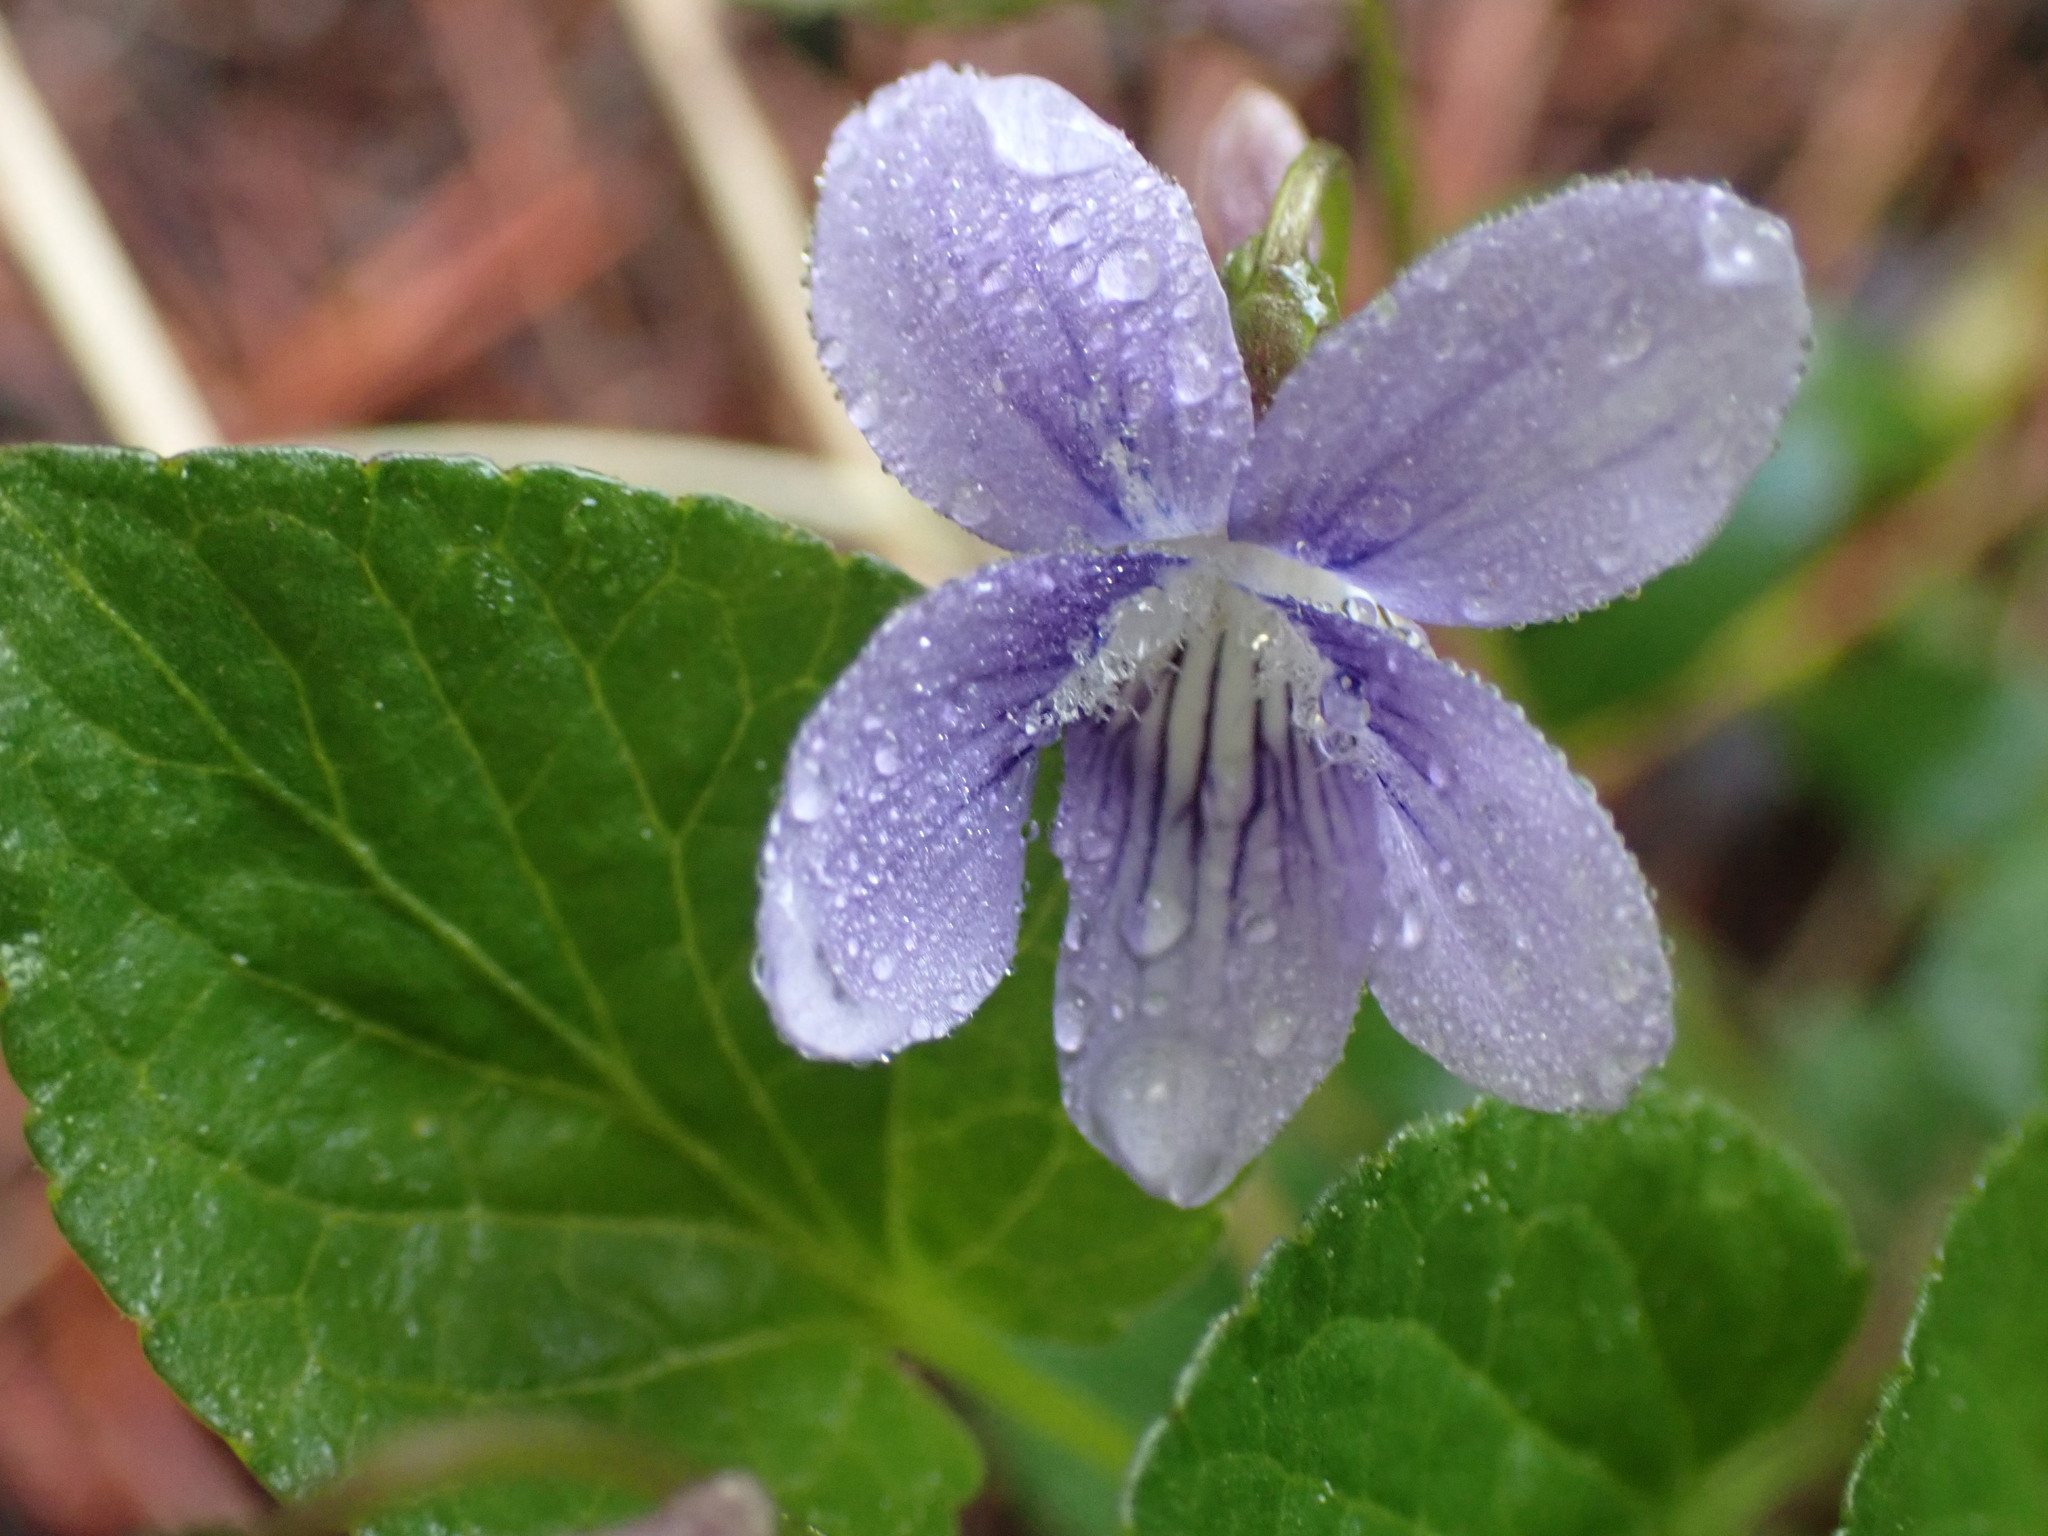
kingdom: Plantae
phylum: Tracheophyta
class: Magnoliopsida
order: Malpighiales
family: Violaceae
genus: Viola
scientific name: Viola adunca
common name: Sand violet
